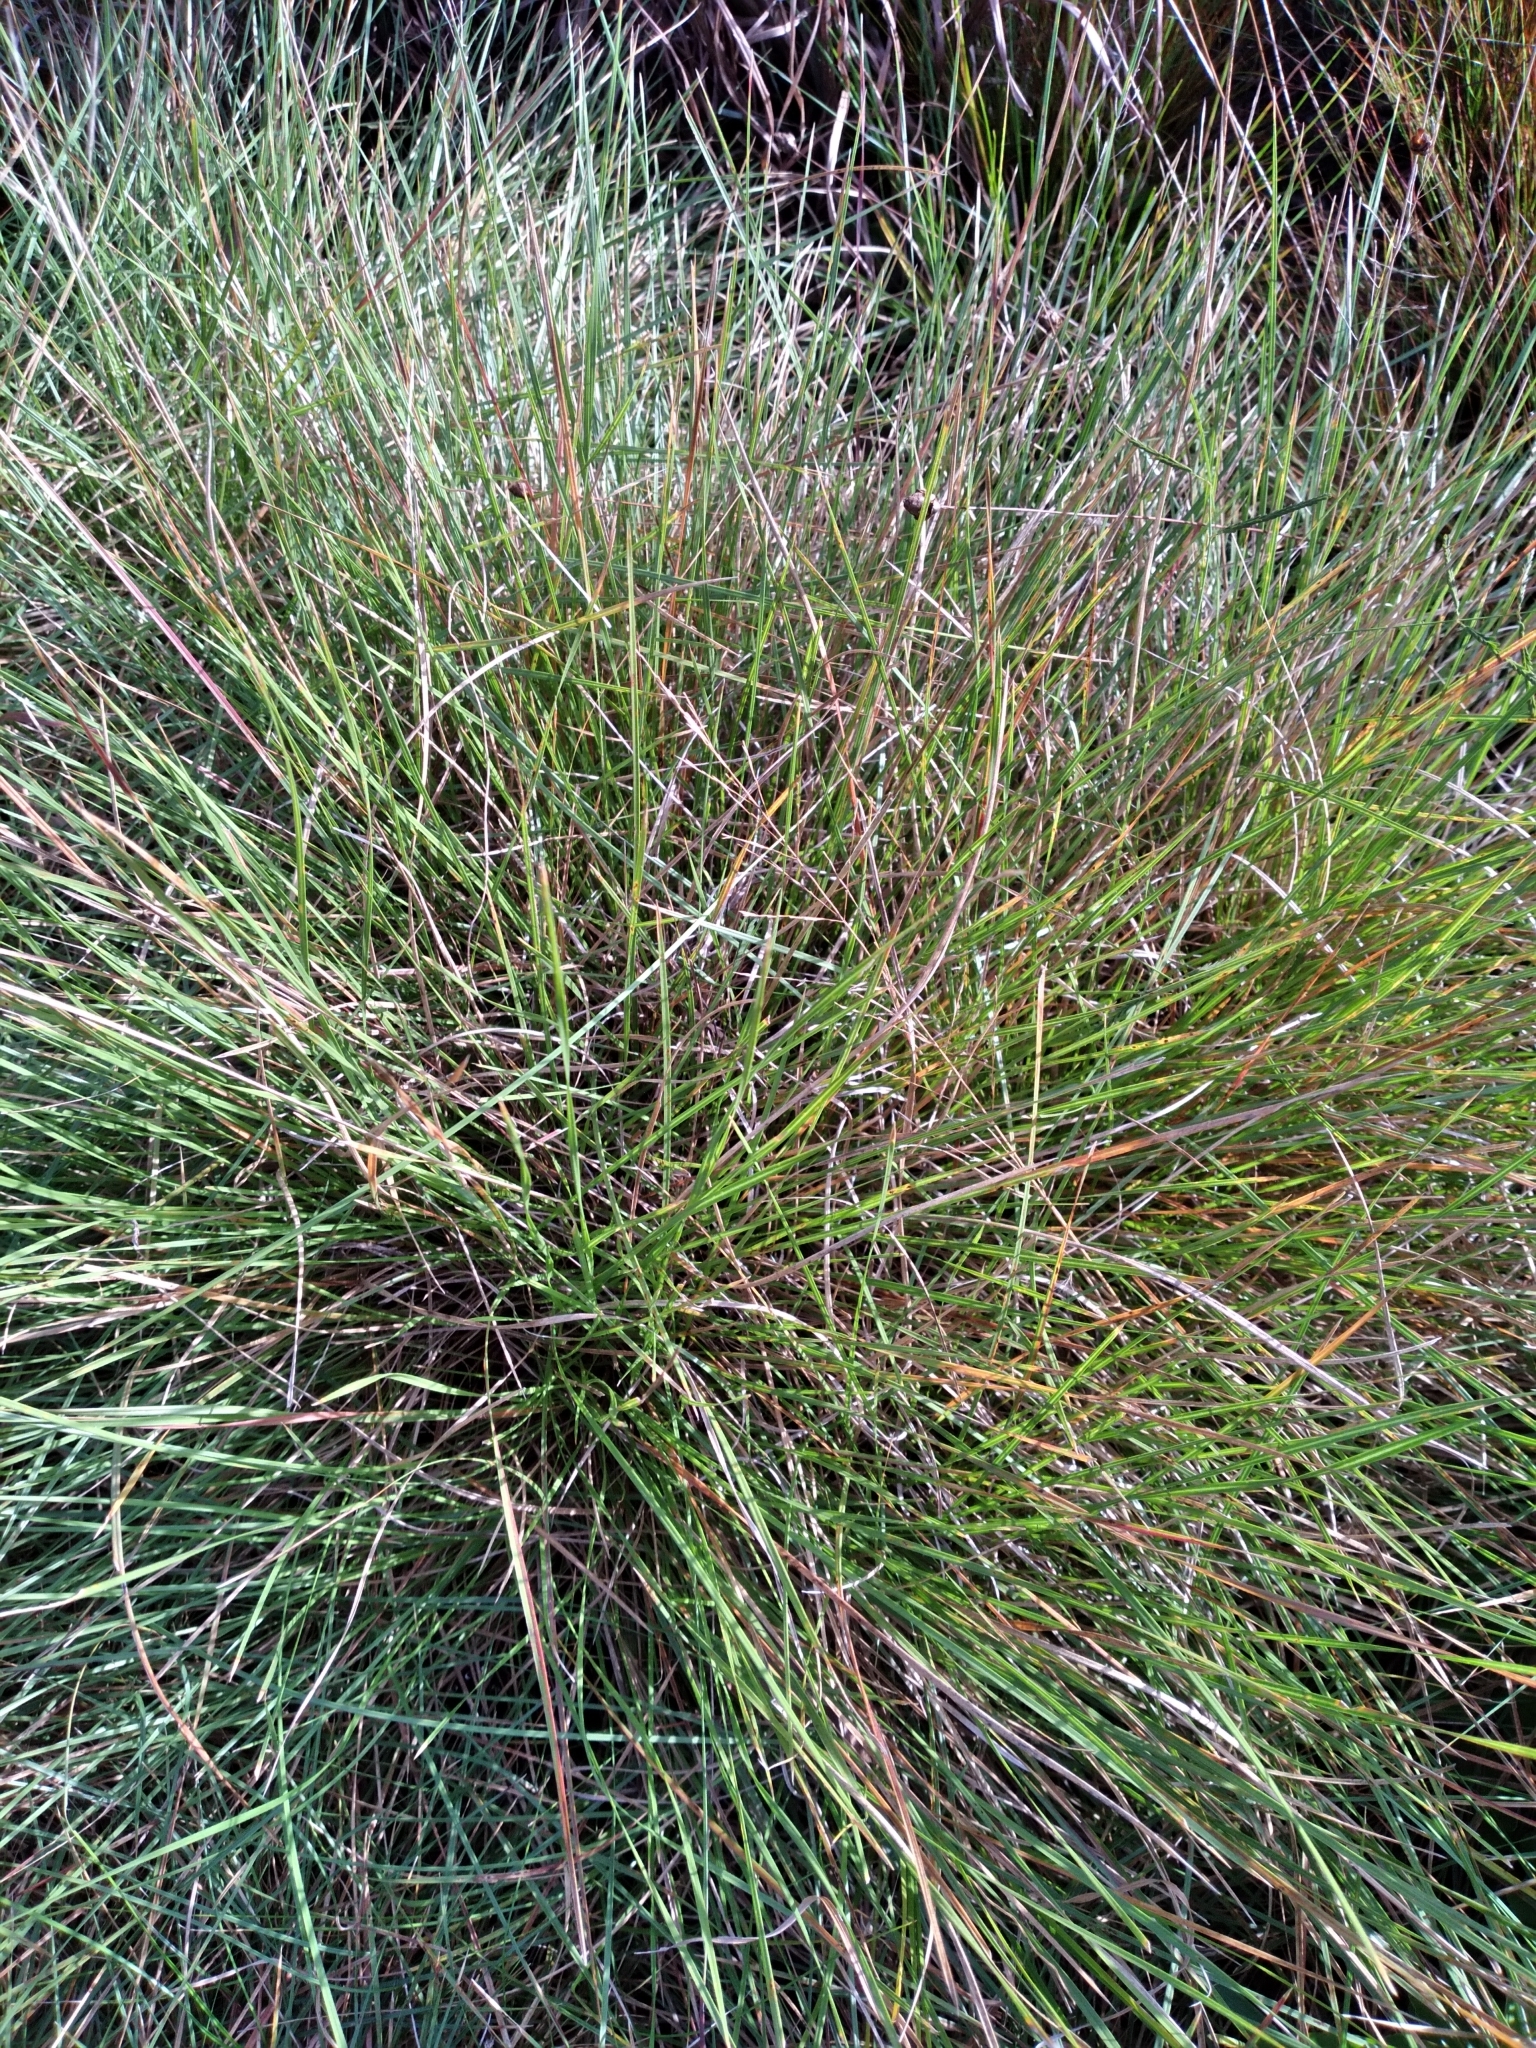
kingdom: Plantae
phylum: Tracheophyta
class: Liliopsida
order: Poales
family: Poaceae
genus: Sporobolus
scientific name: Sporobolus curtissii
